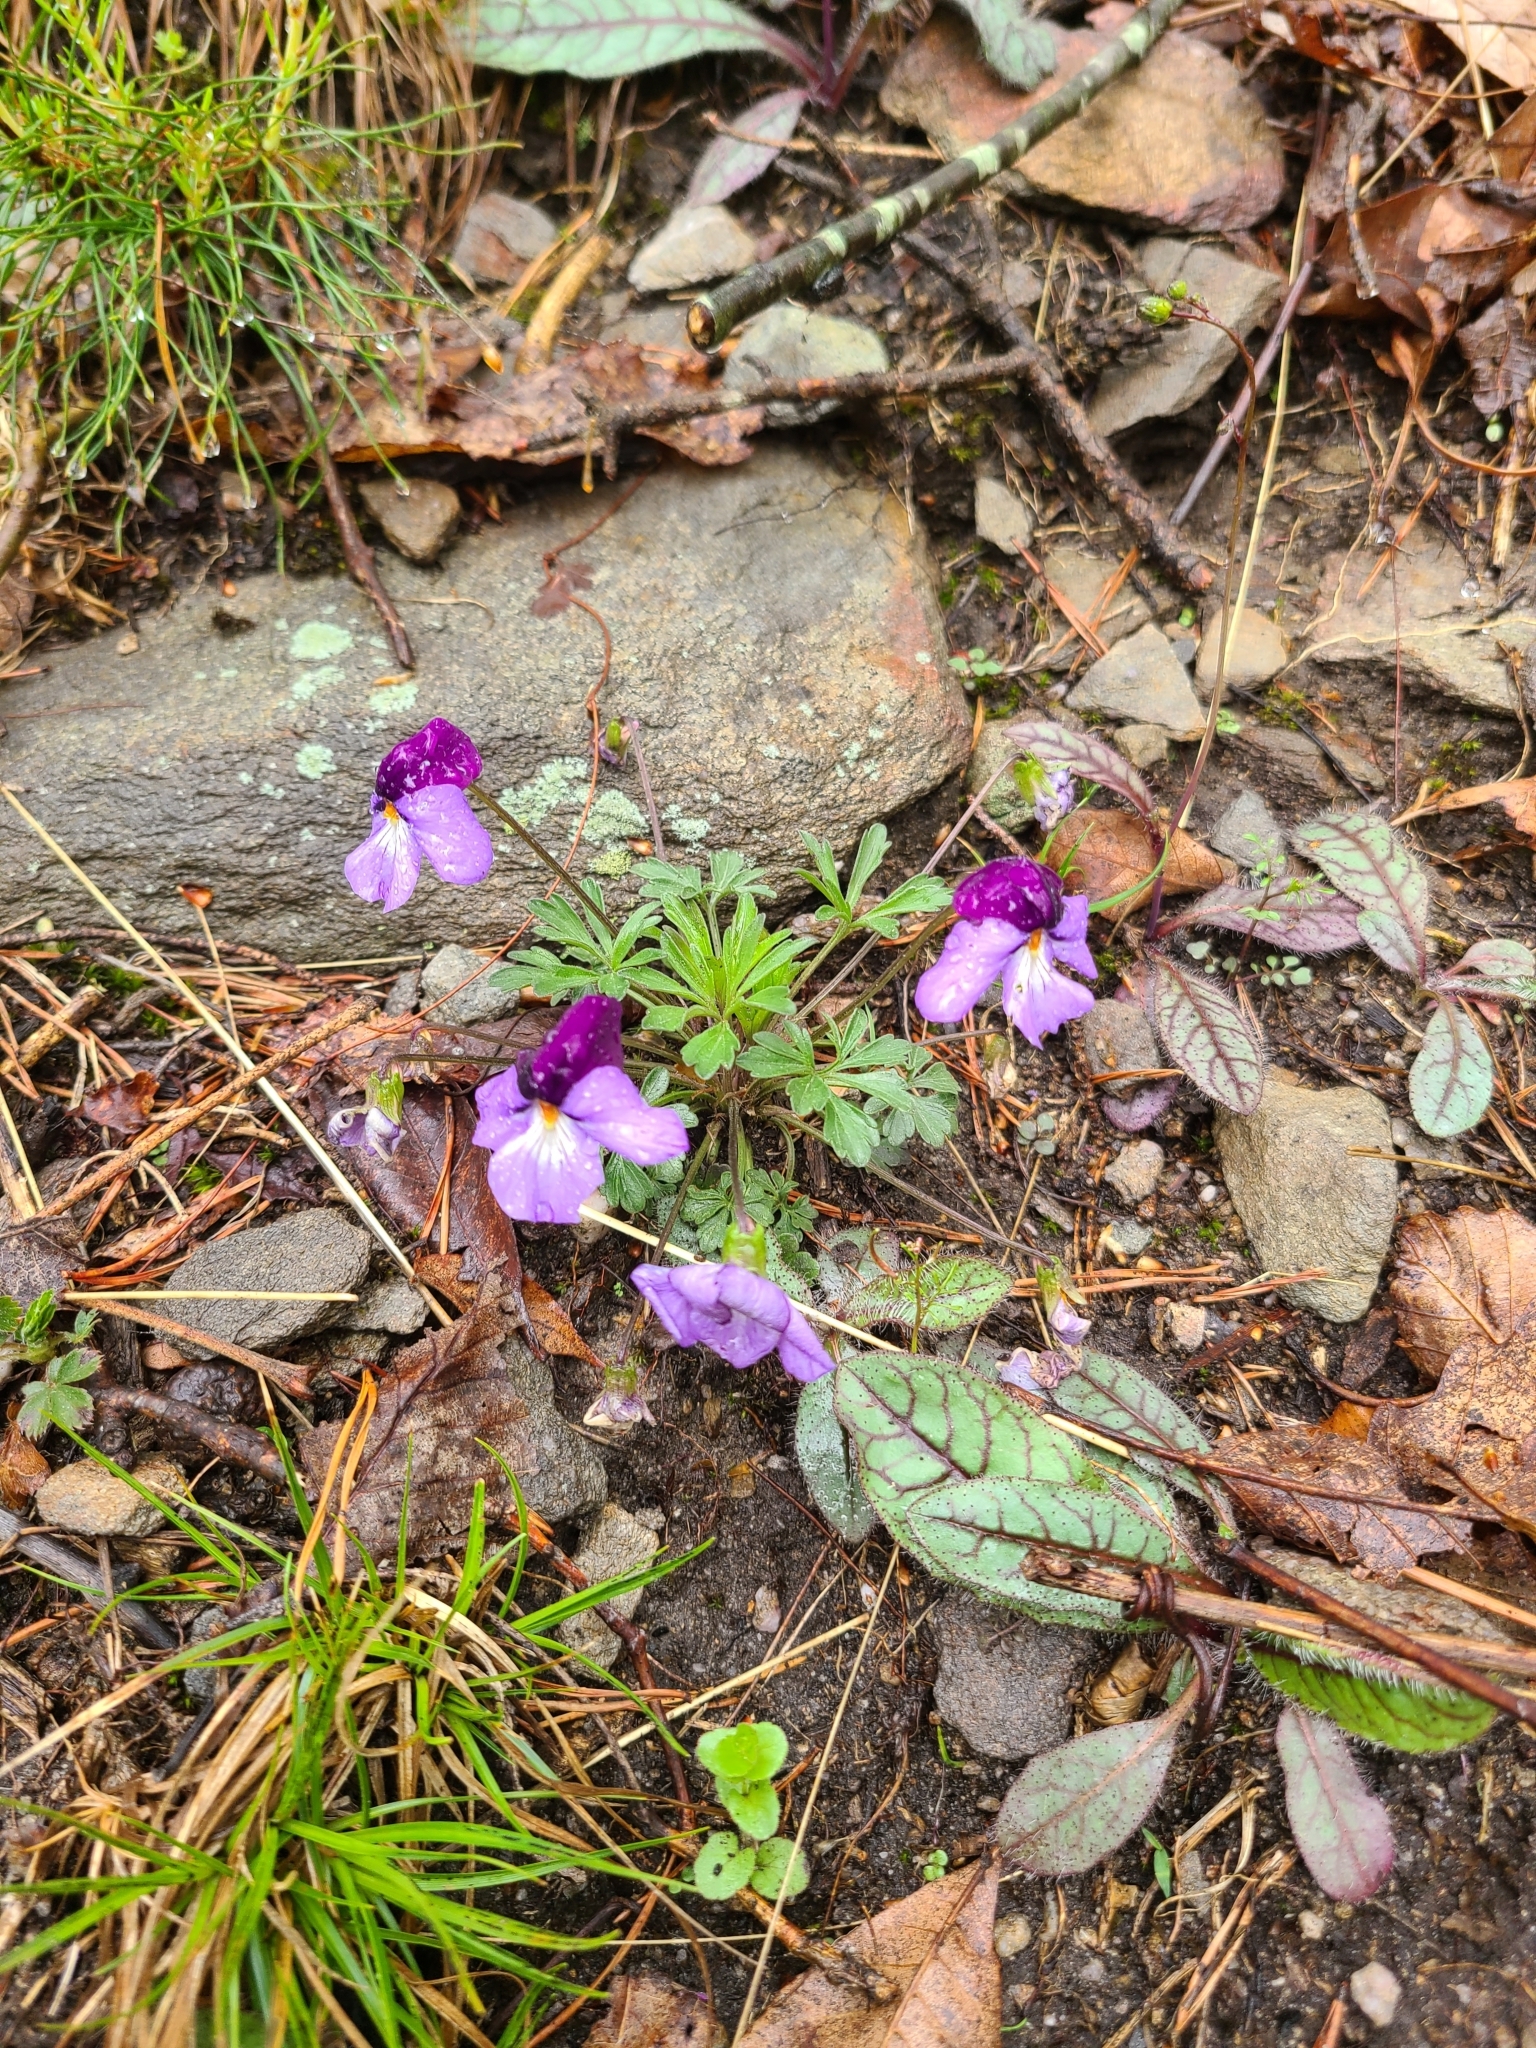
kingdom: Plantae
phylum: Tracheophyta
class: Magnoliopsida
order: Malpighiales
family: Violaceae
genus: Viola
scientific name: Viola pedata
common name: Pansy violet
